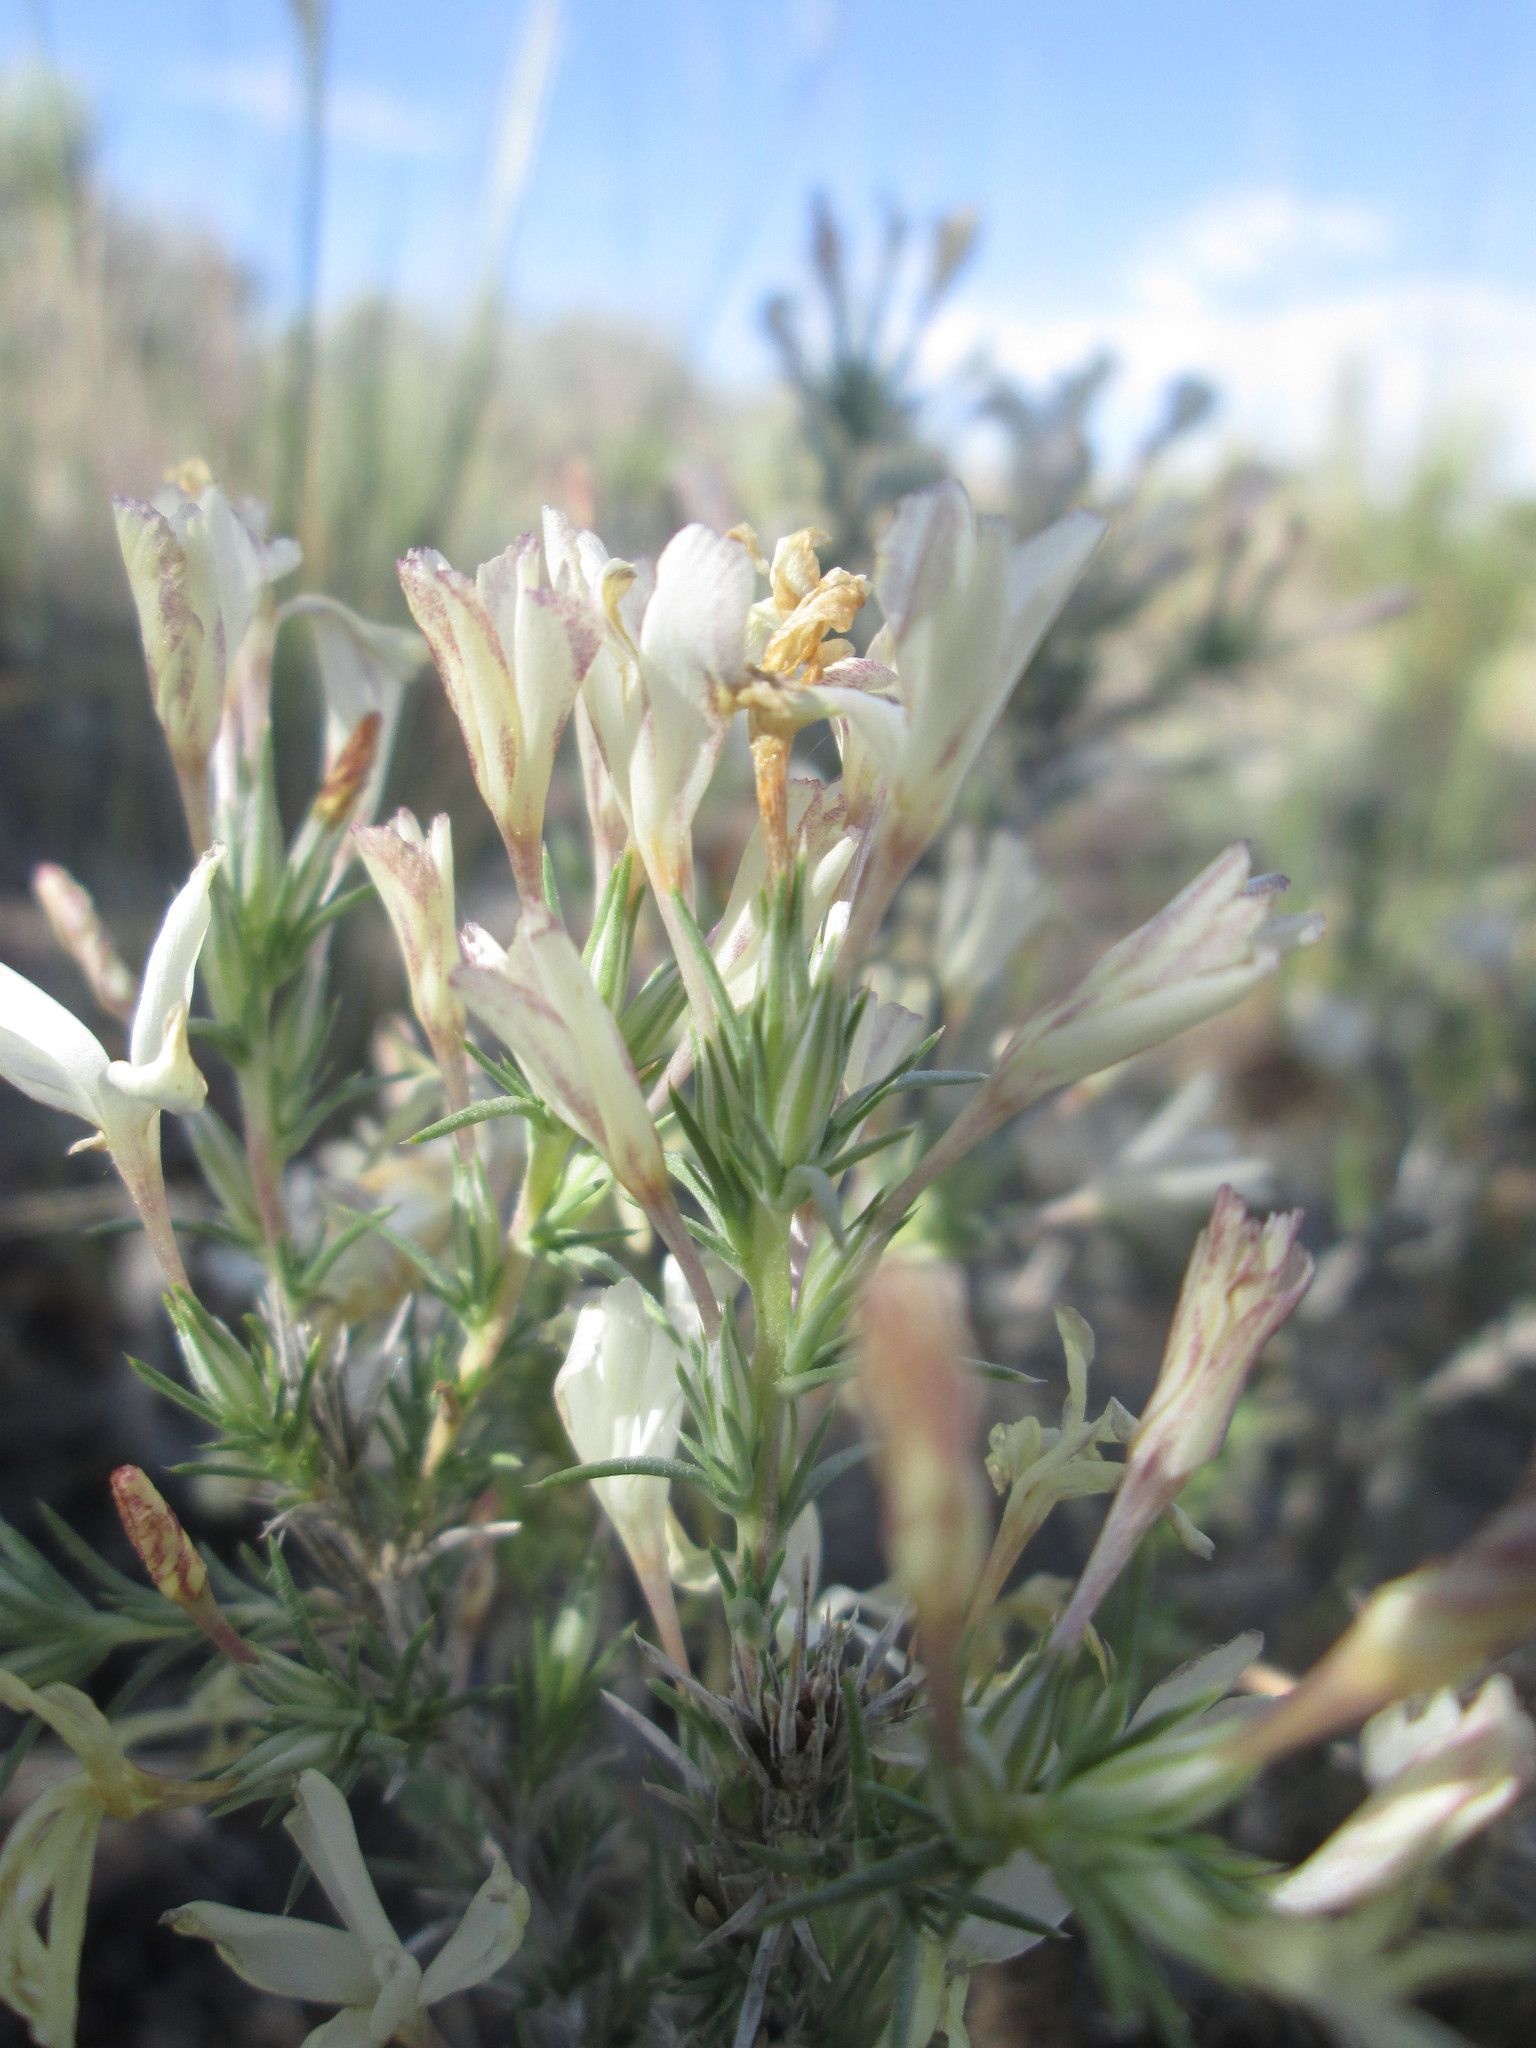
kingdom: Plantae
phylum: Tracheophyta
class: Magnoliopsida
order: Ericales
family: Polemoniaceae
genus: Linanthus
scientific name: Linanthus pungens
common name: Granite prickly phlox
